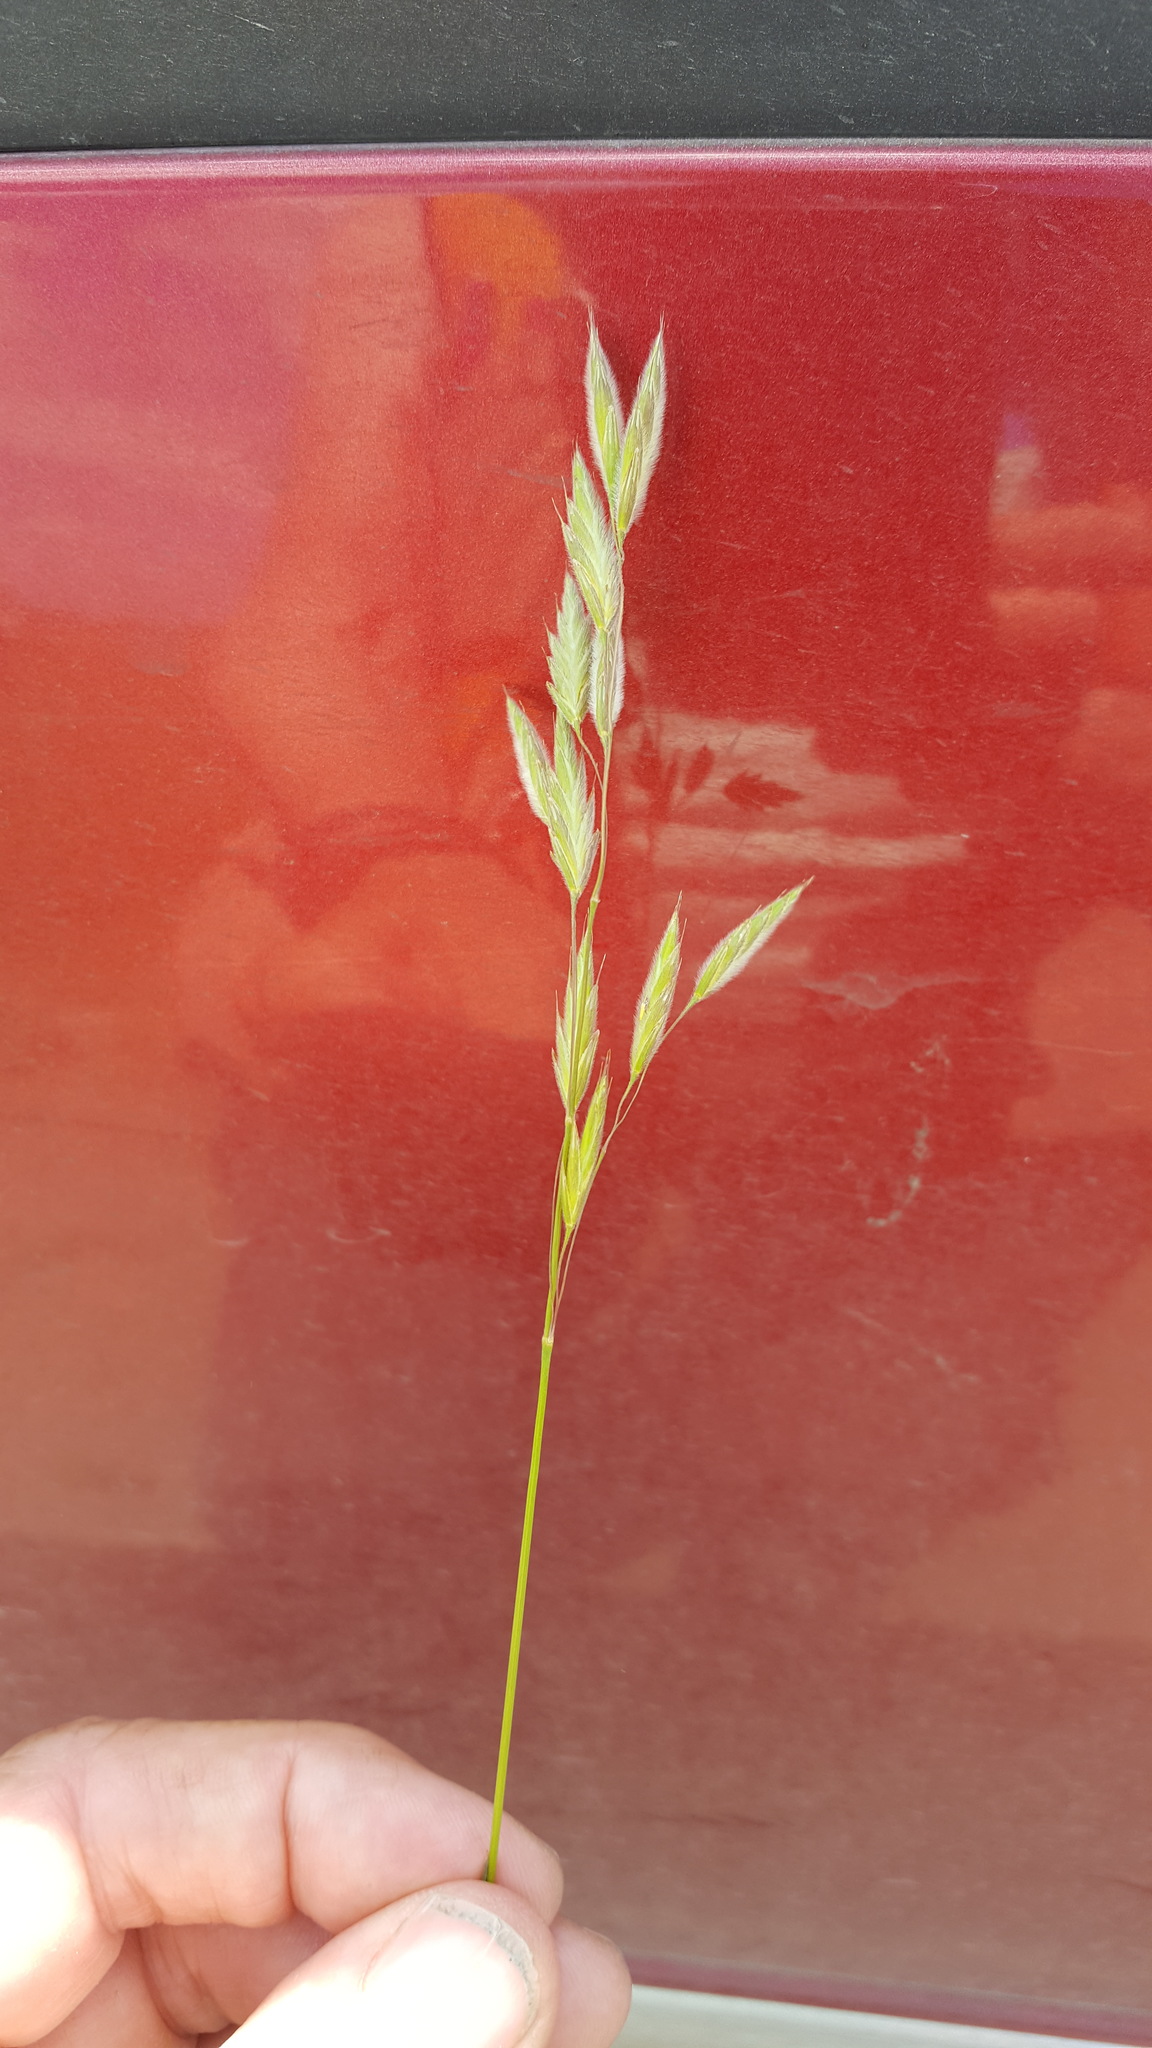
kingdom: Plantae
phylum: Tracheophyta
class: Liliopsida
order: Poales
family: Poaceae
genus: Bromus
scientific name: Bromus kalmii
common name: Kalm brome
